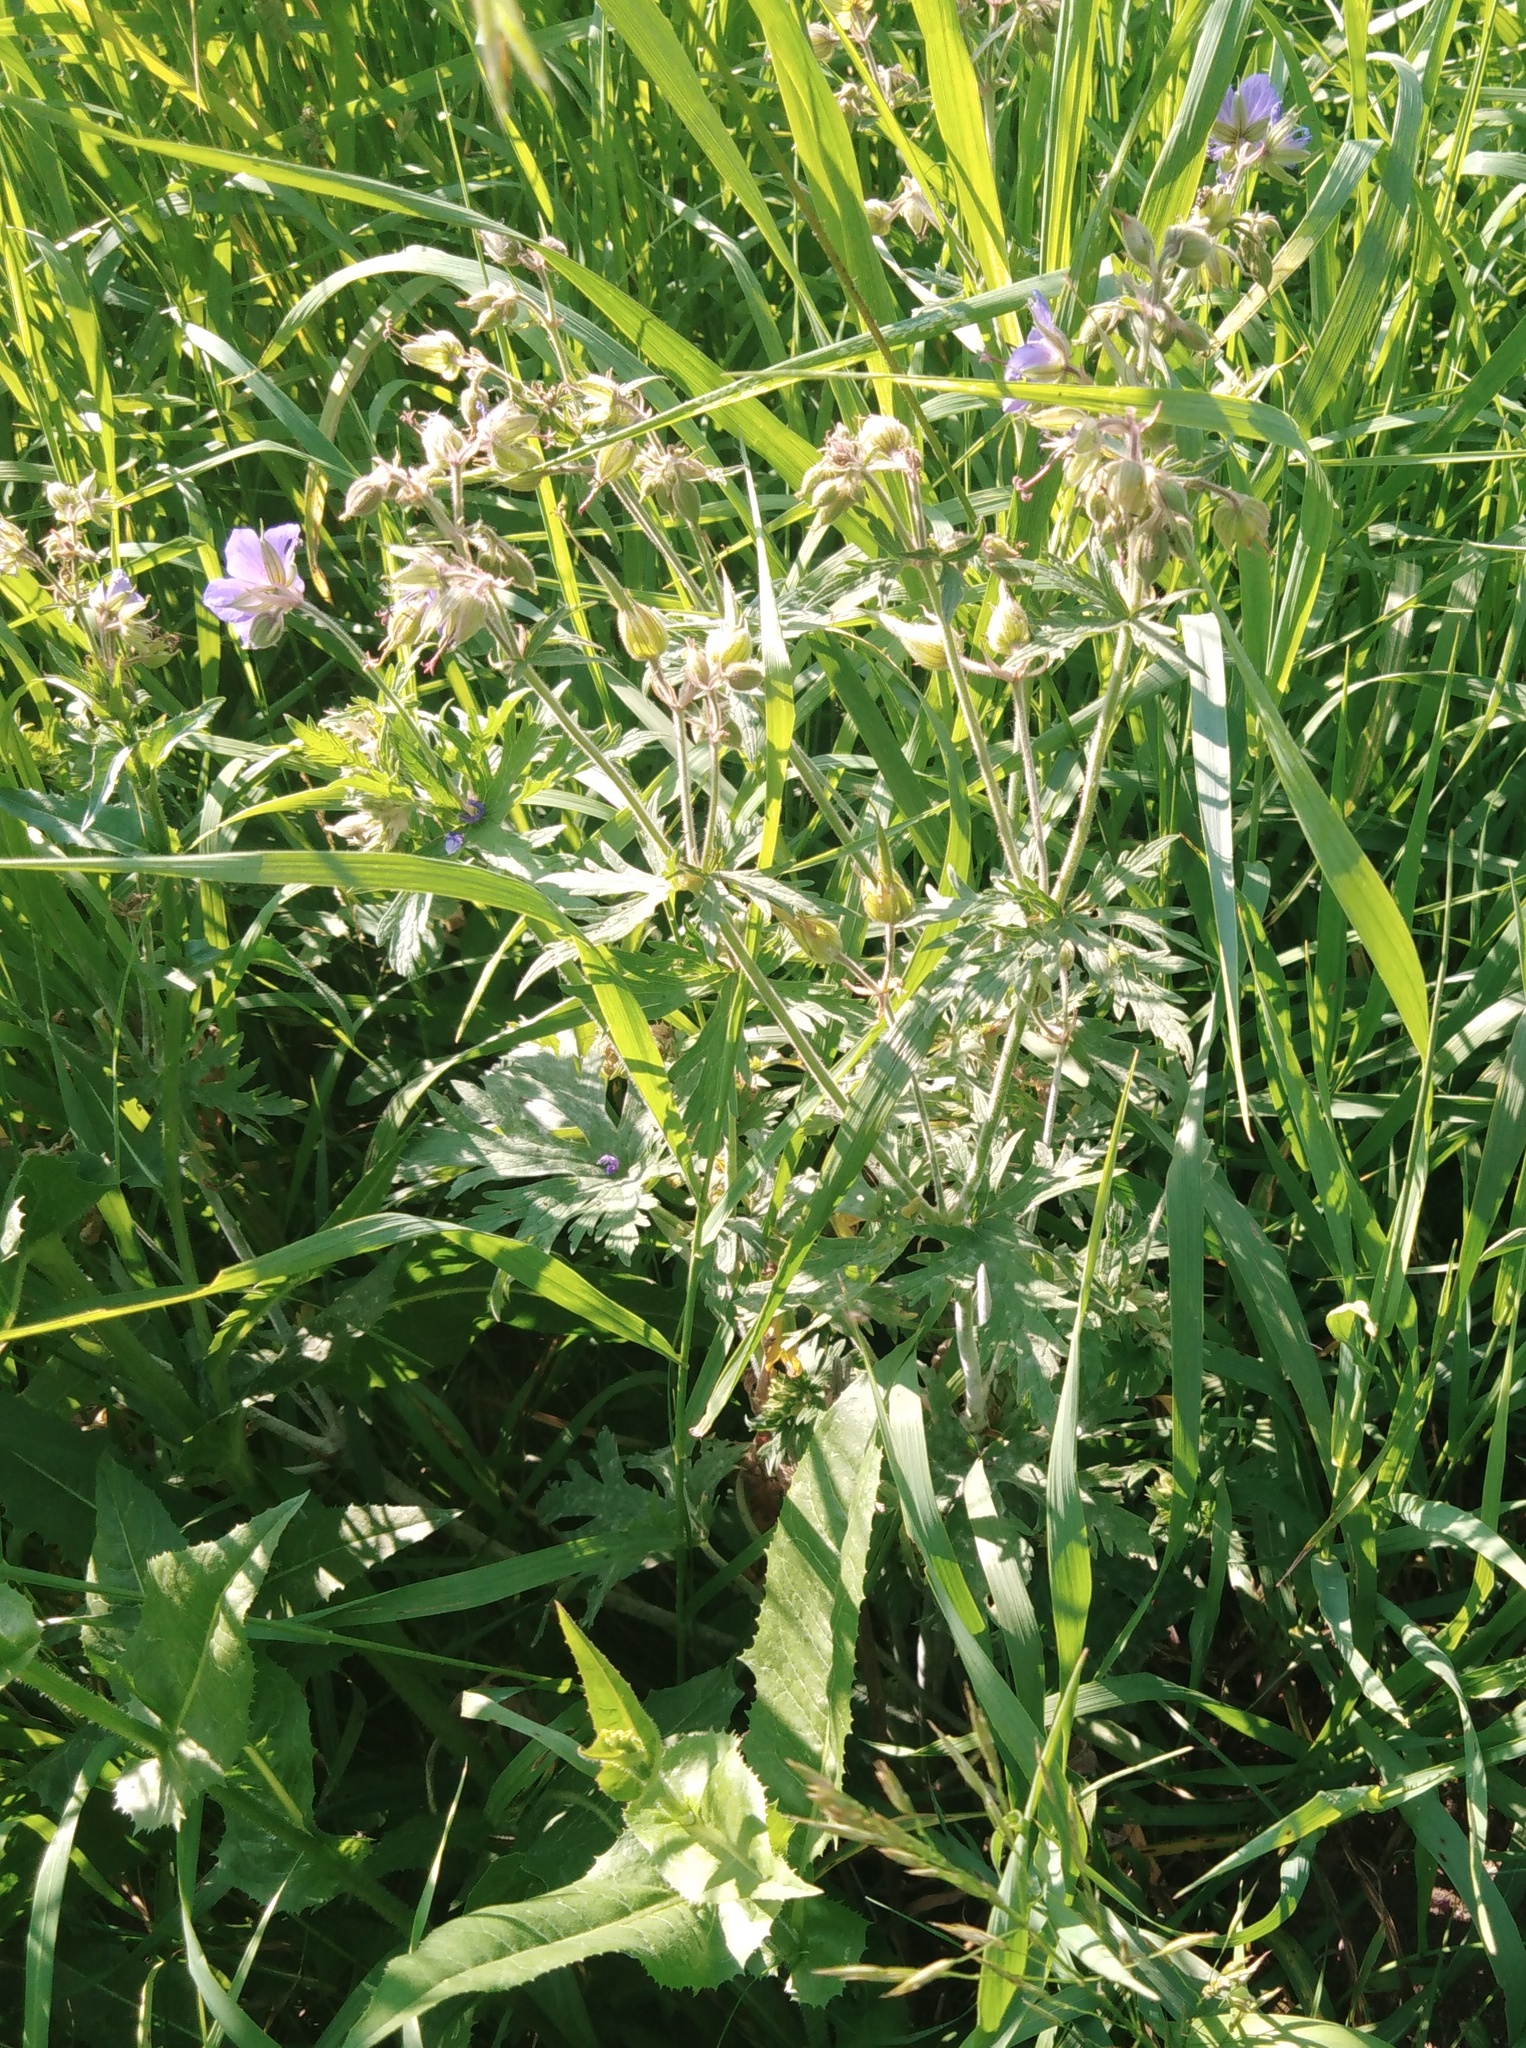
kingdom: Plantae
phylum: Tracheophyta
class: Magnoliopsida
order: Geraniales
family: Geraniaceae
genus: Geranium
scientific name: Geranium pratense
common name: Meadow crane's-bill
